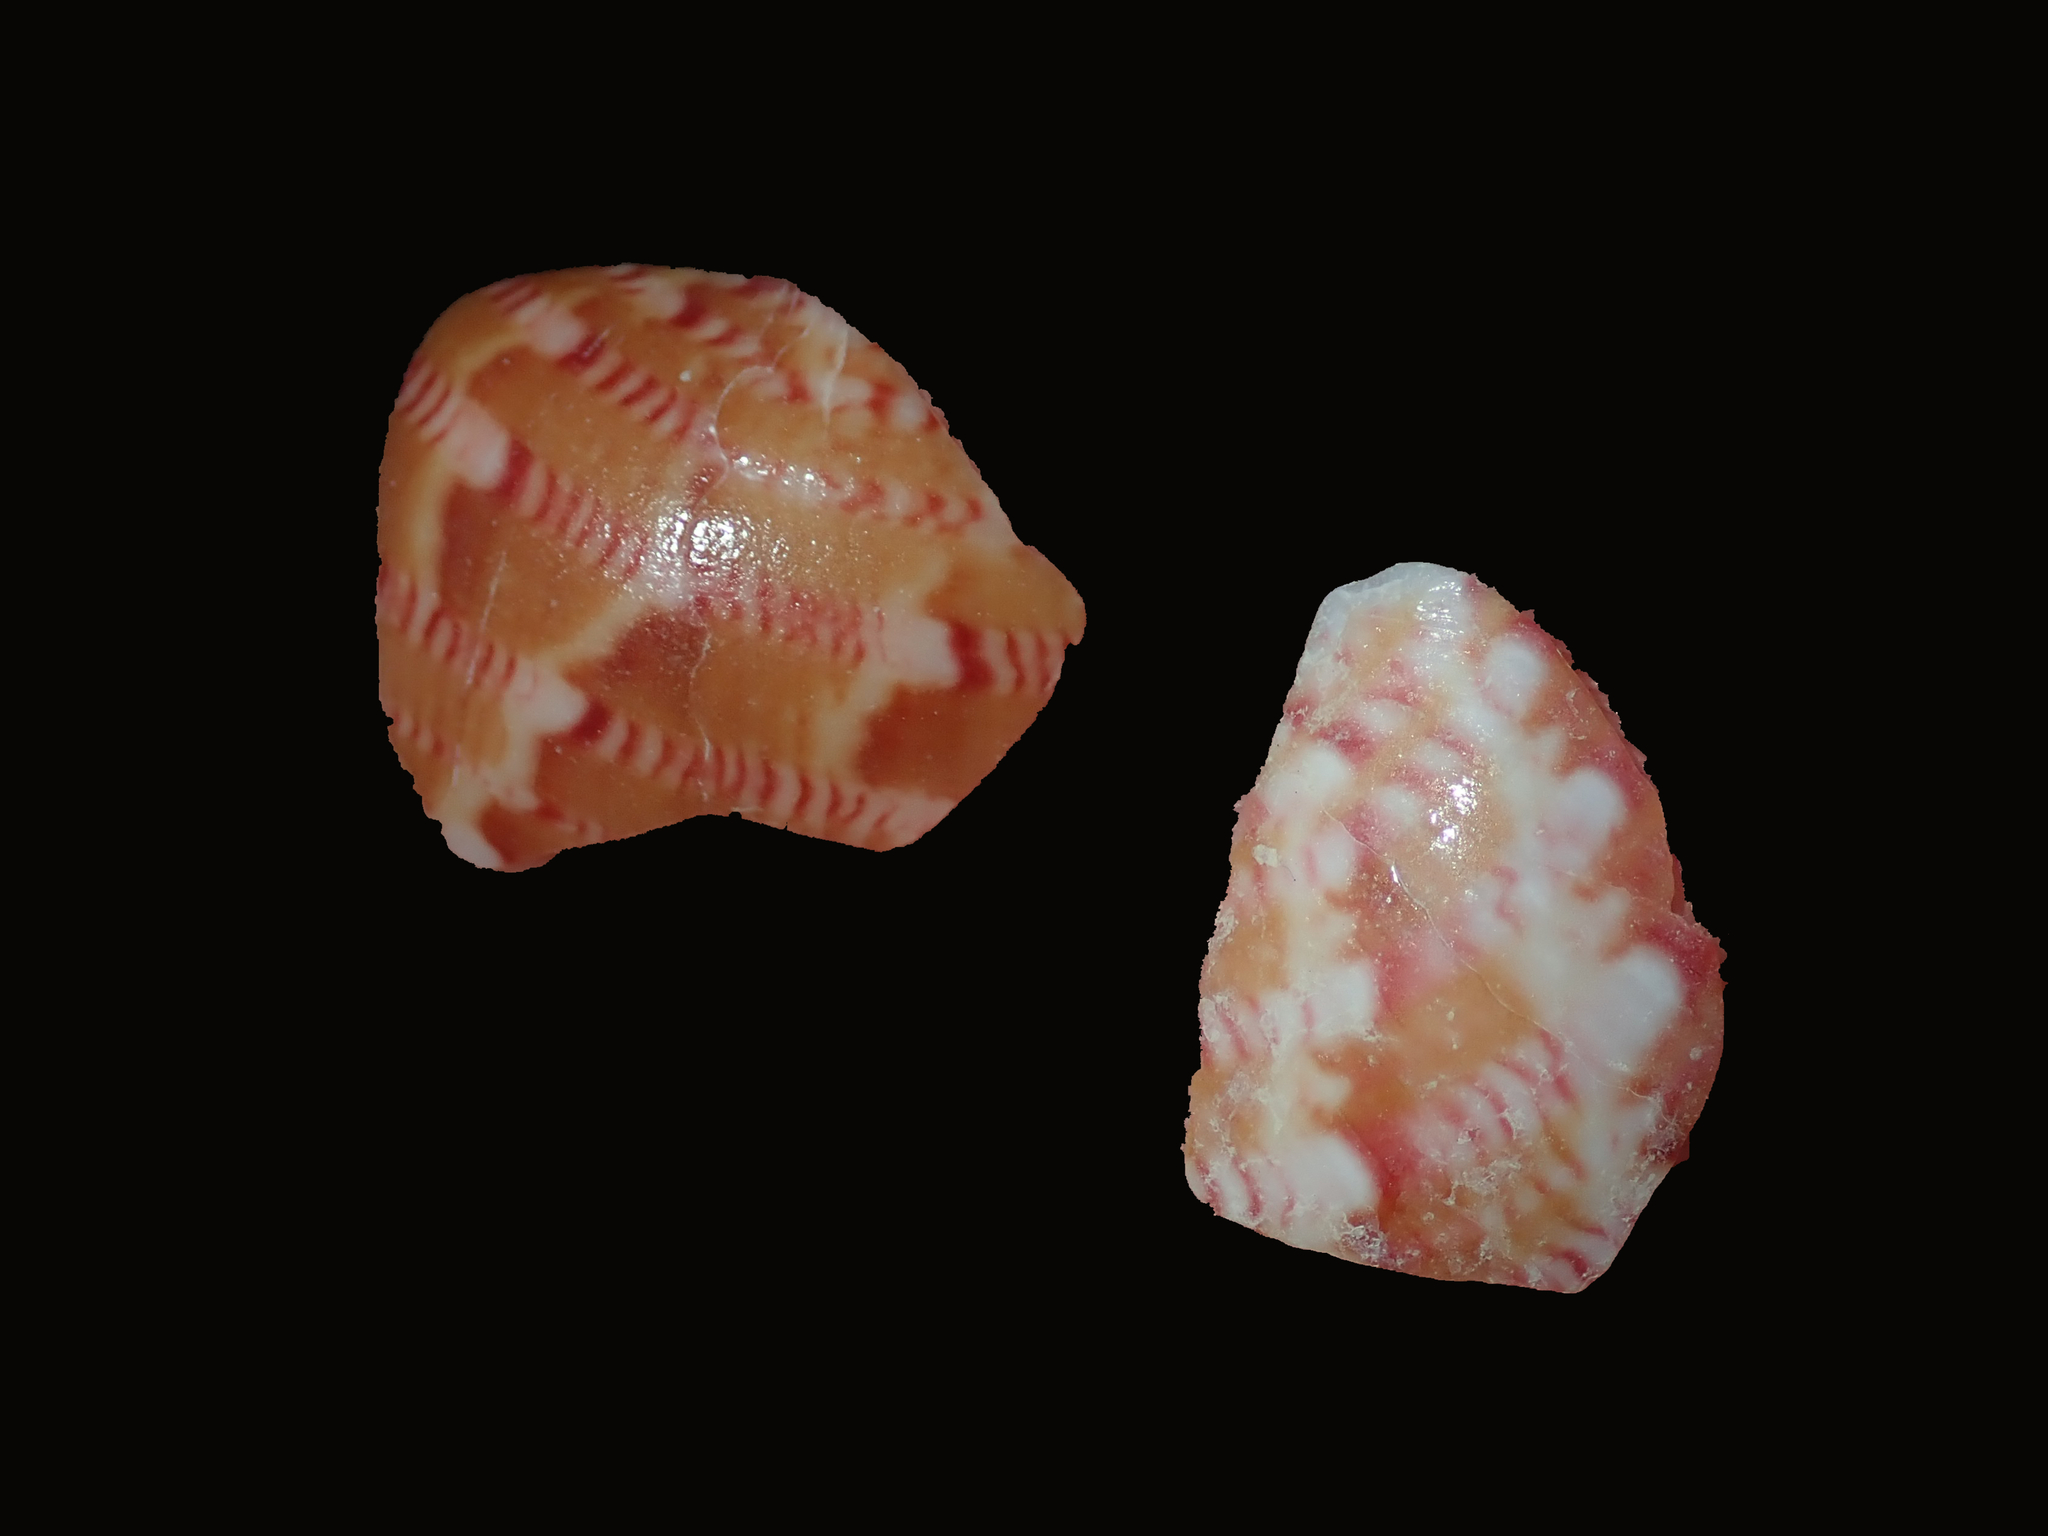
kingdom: Animalia
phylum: Mollusca
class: Gastropoda
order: Trochida
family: Phasianellidae
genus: Phasianella
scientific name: Phasianella australis
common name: Painted lady
